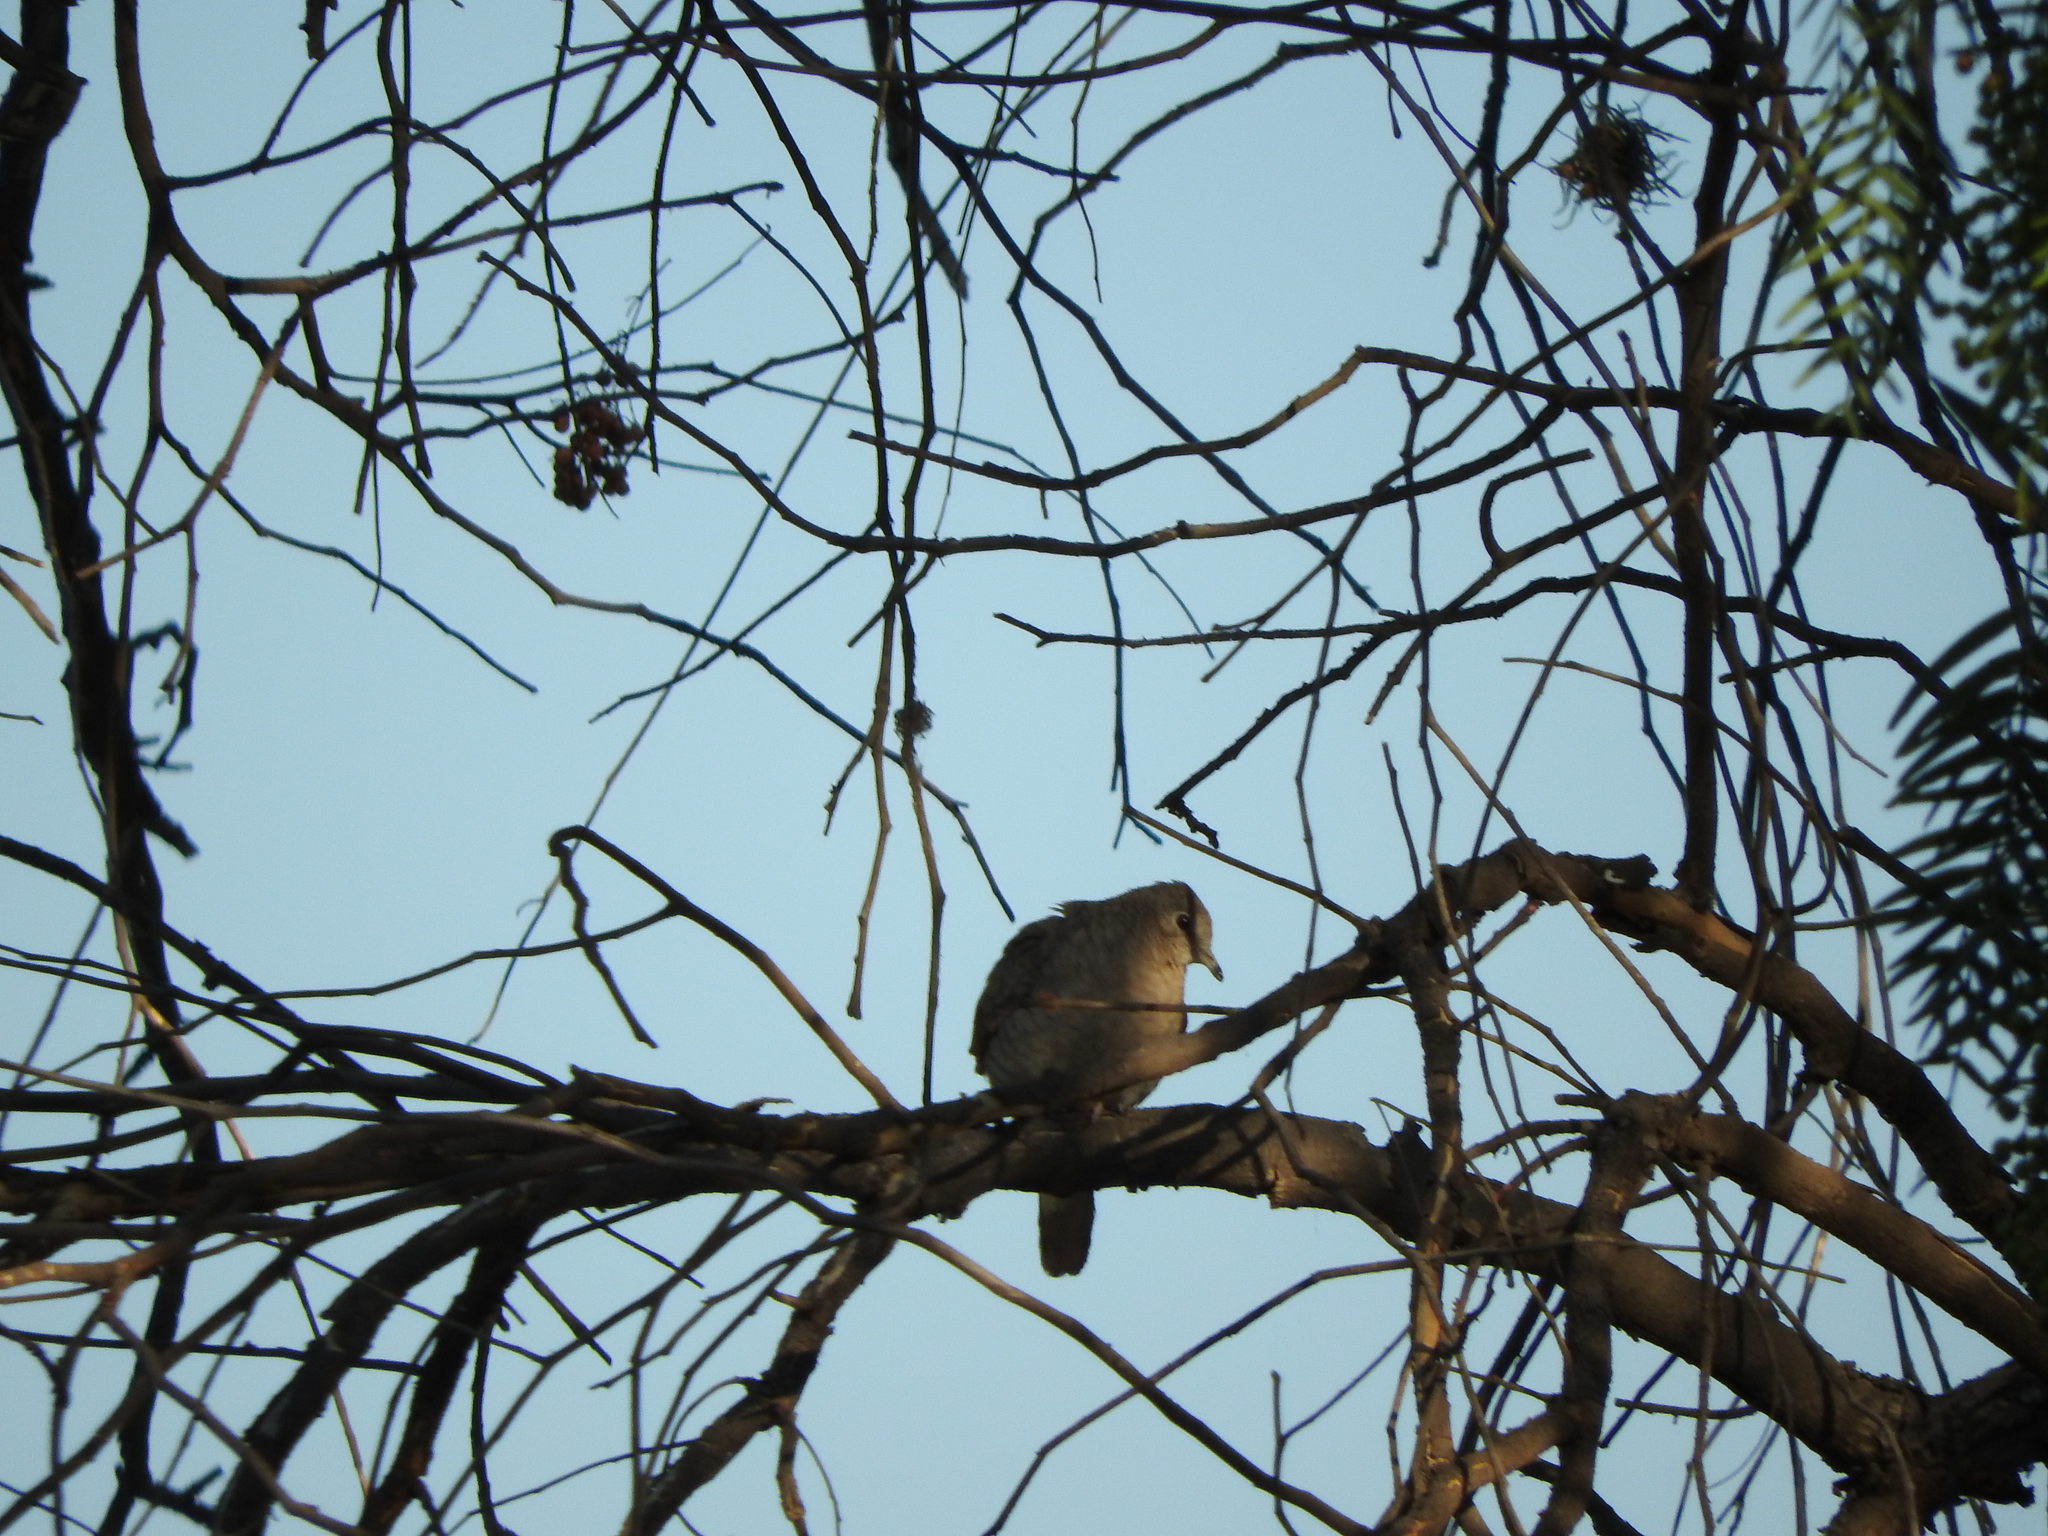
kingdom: Animalia
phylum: Chordata
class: Aves
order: Columbiformes
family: Columbidae
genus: Columbina
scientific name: Columbina inca
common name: Inca dove
